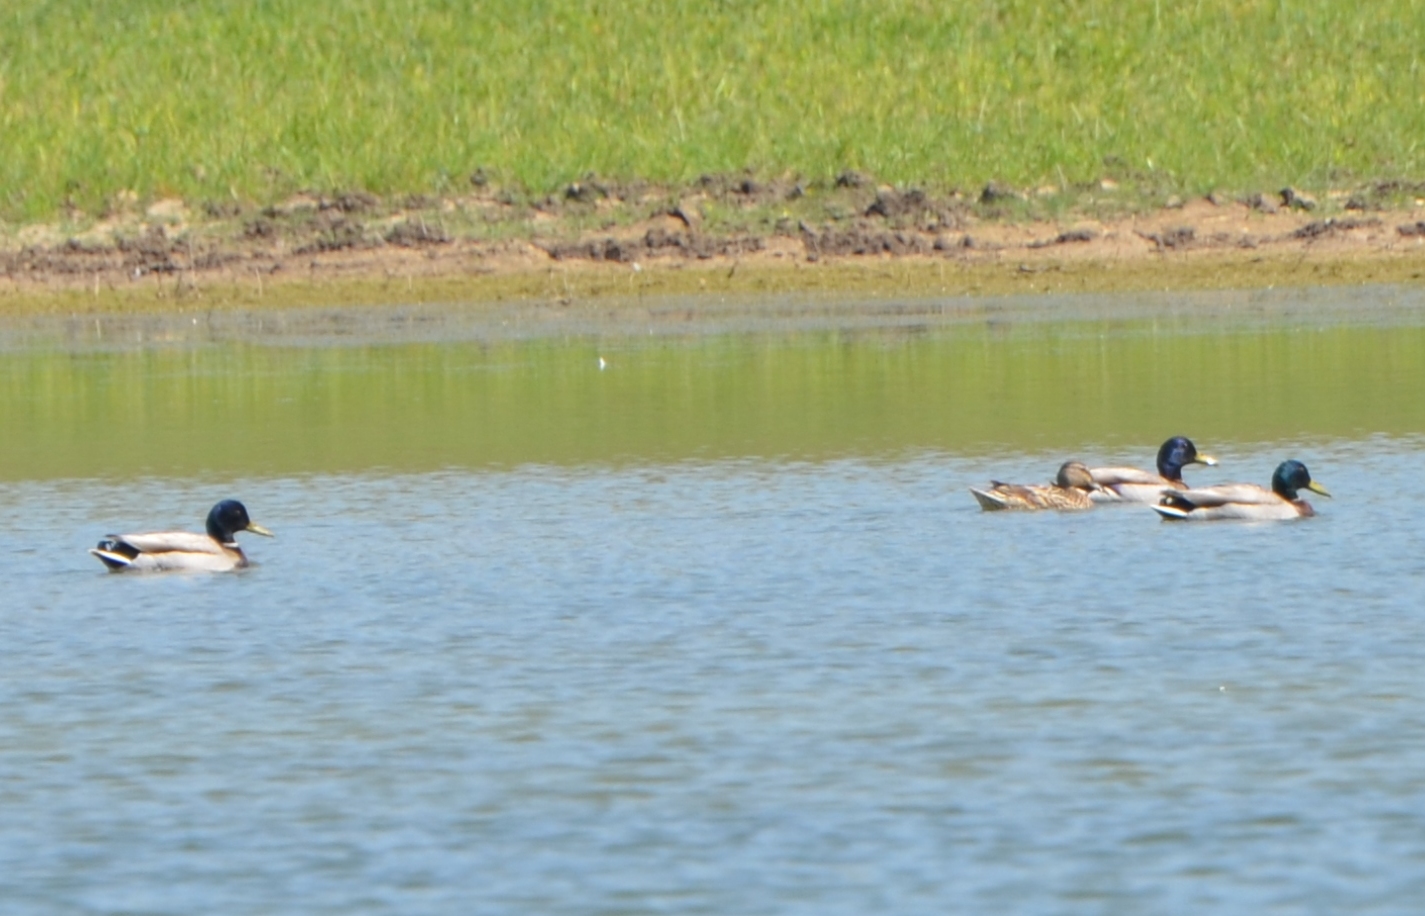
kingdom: Animalia
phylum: Chordata
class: Aves
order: Anseriformes
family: Anatidae
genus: Anas
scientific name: Anas platyrhynchos
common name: Mallard
